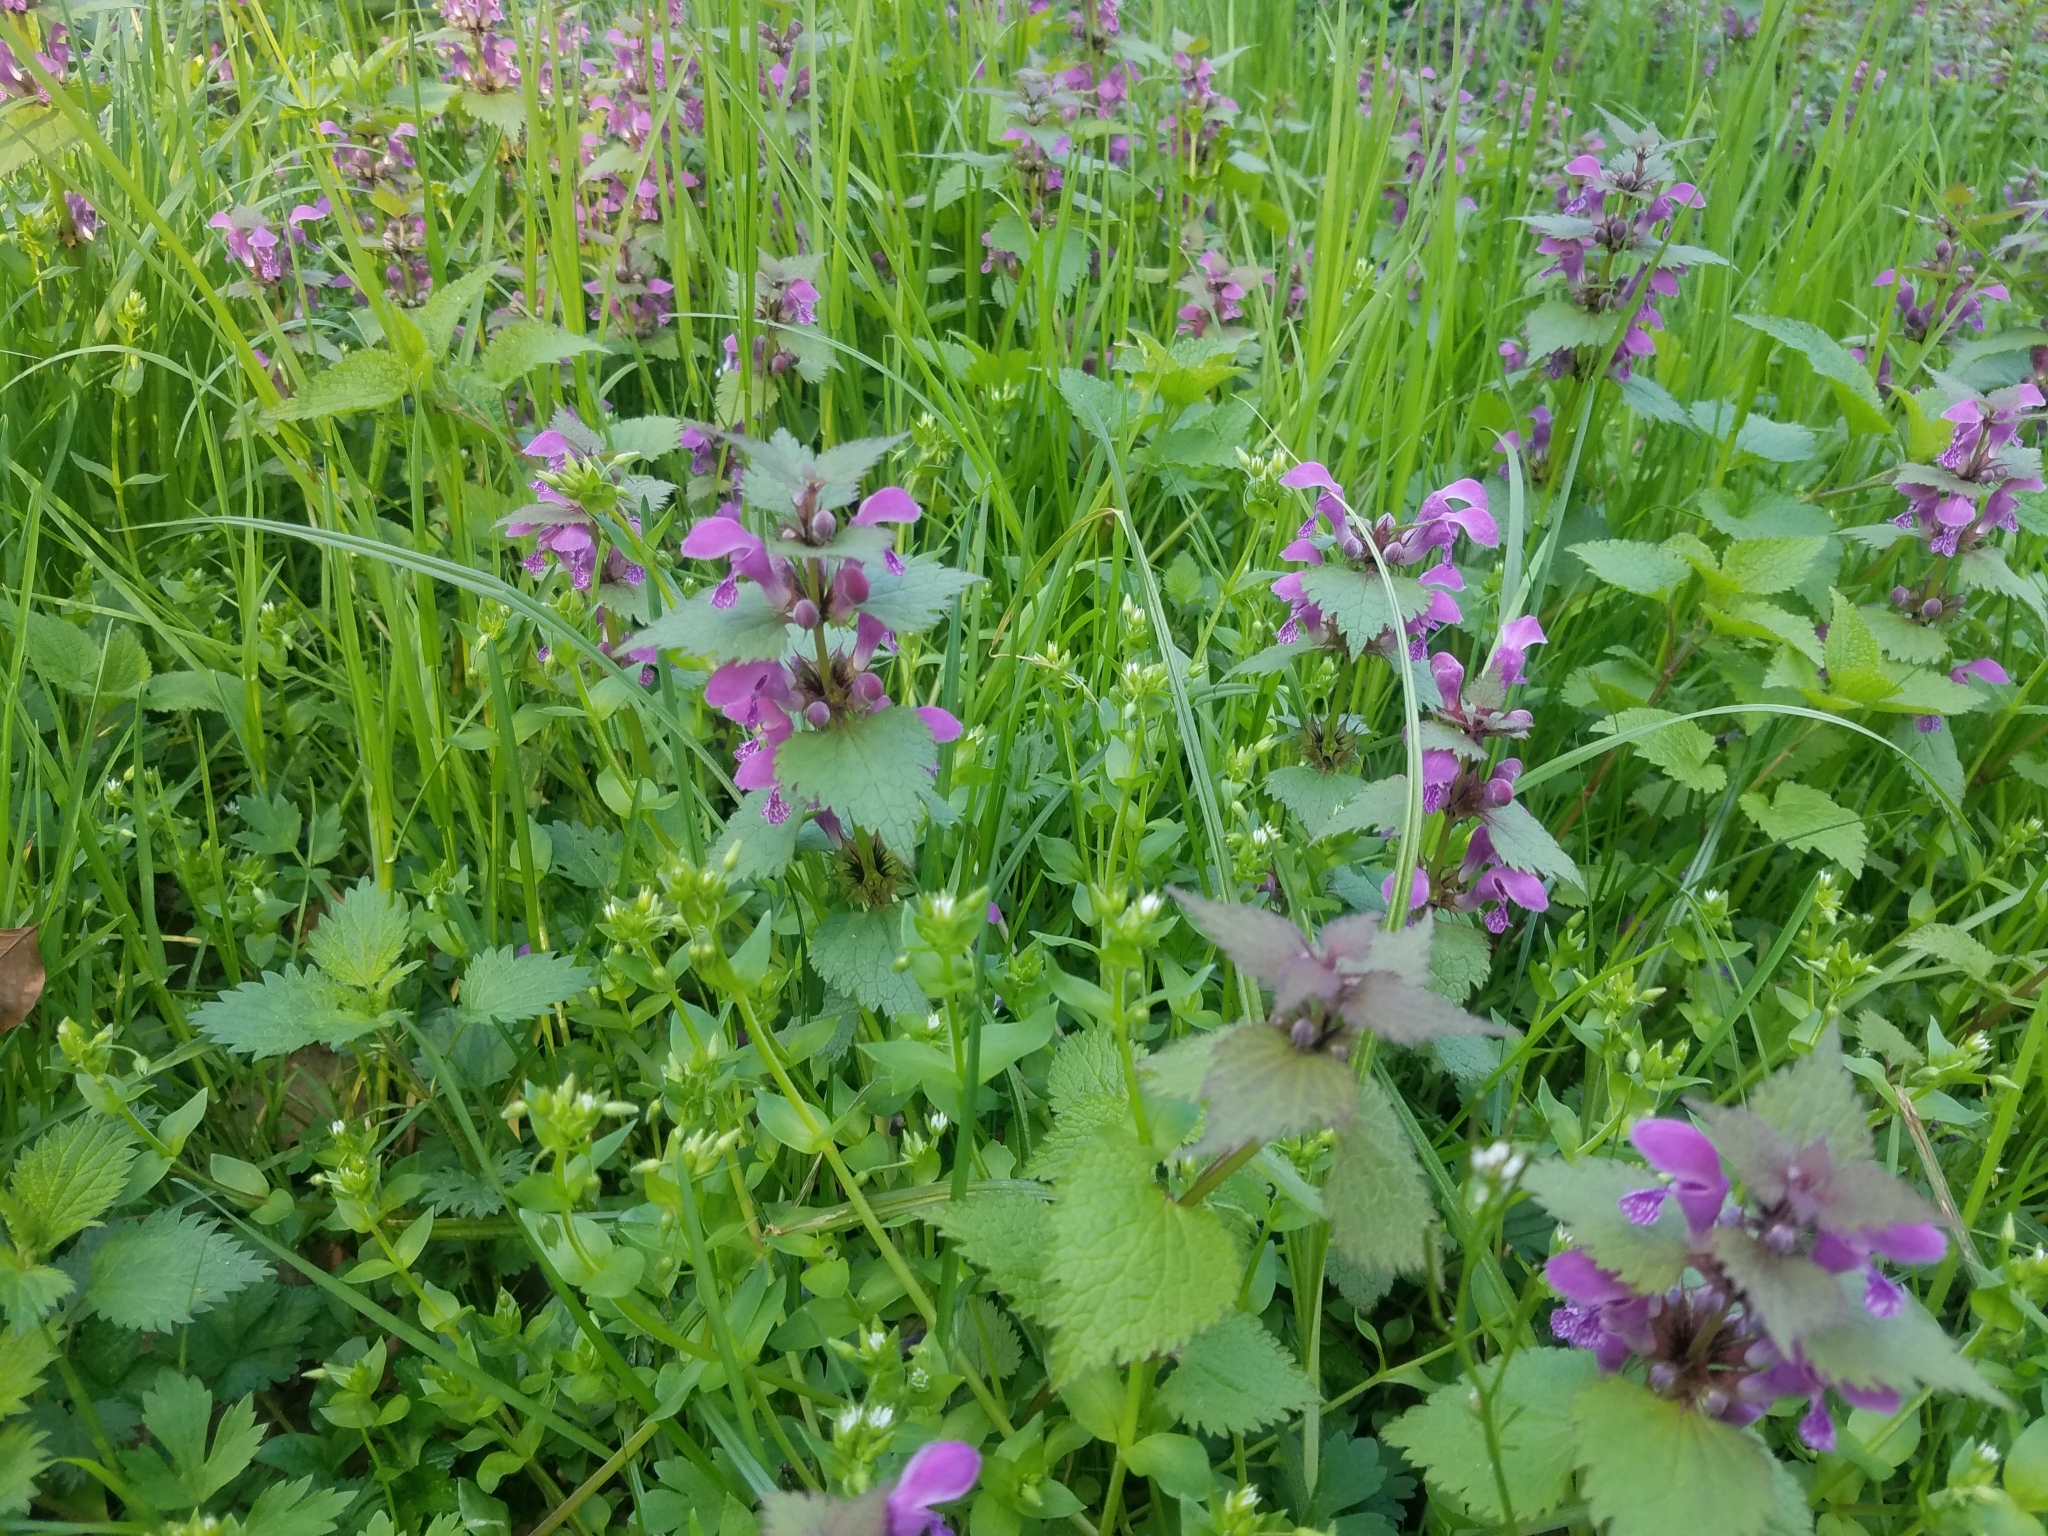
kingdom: Plantae
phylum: Tracheophyta
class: Magnoliopsida
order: Lamiales
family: Lamiaceae
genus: Lamium
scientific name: Lamium maculatum
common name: Spotted dead-nettle
